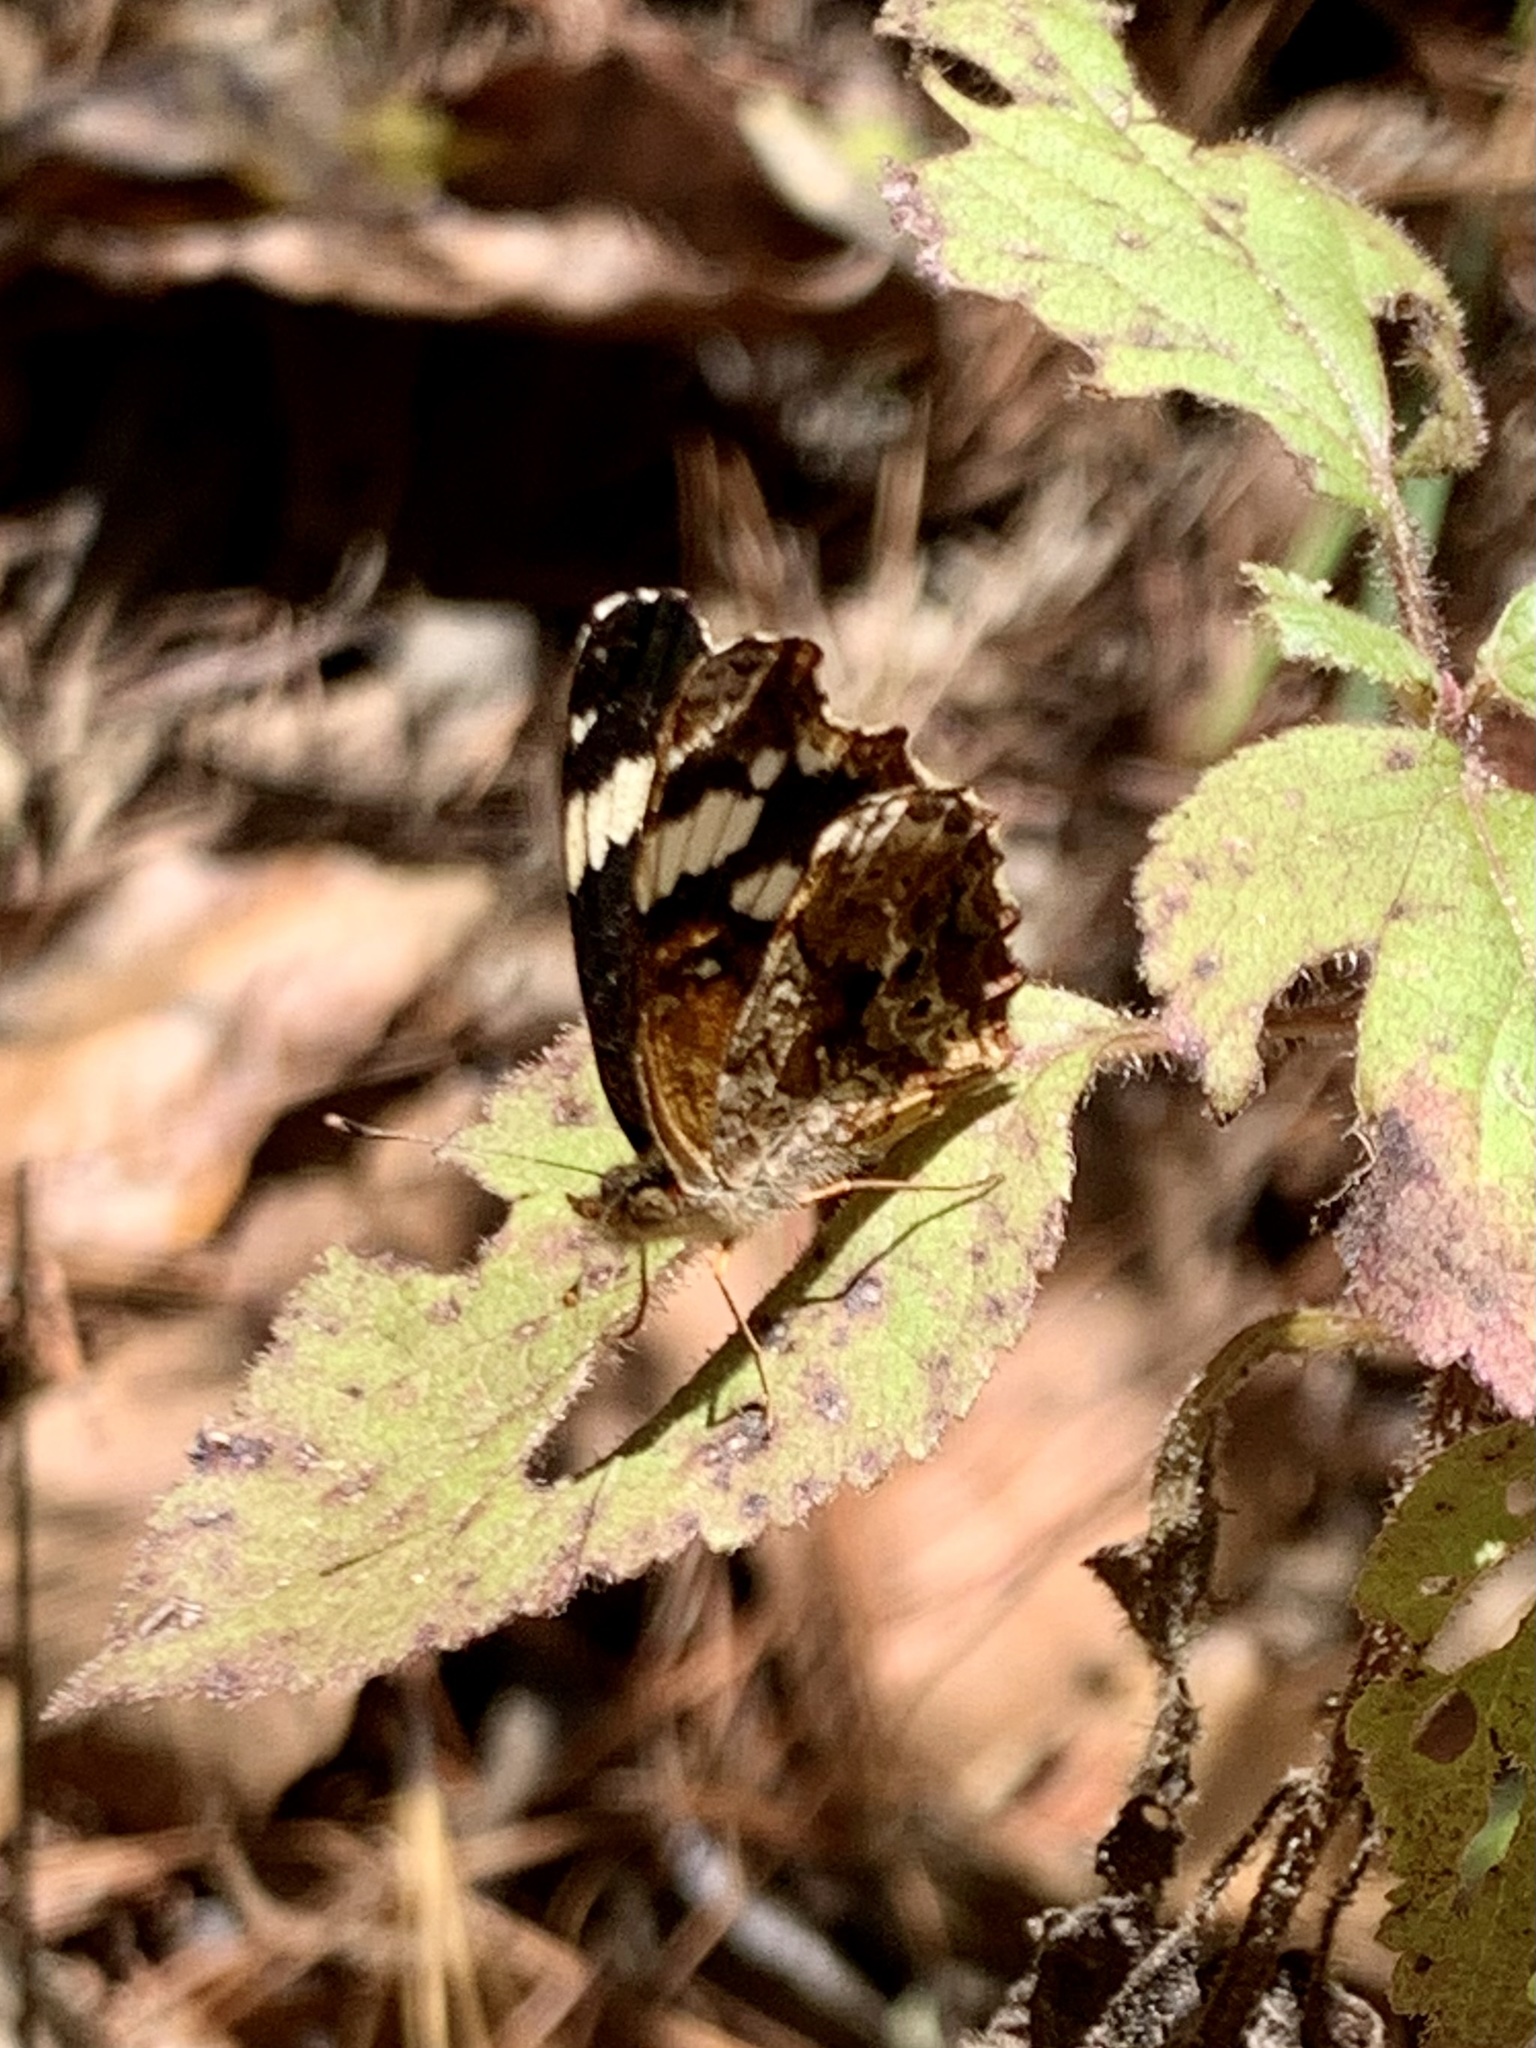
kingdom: Animalia
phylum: Arthropoda
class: Insecta
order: Lepidoptera
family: Nymphalidae
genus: Anthanassa
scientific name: Anthanassa sitalces
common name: Montane crescent
